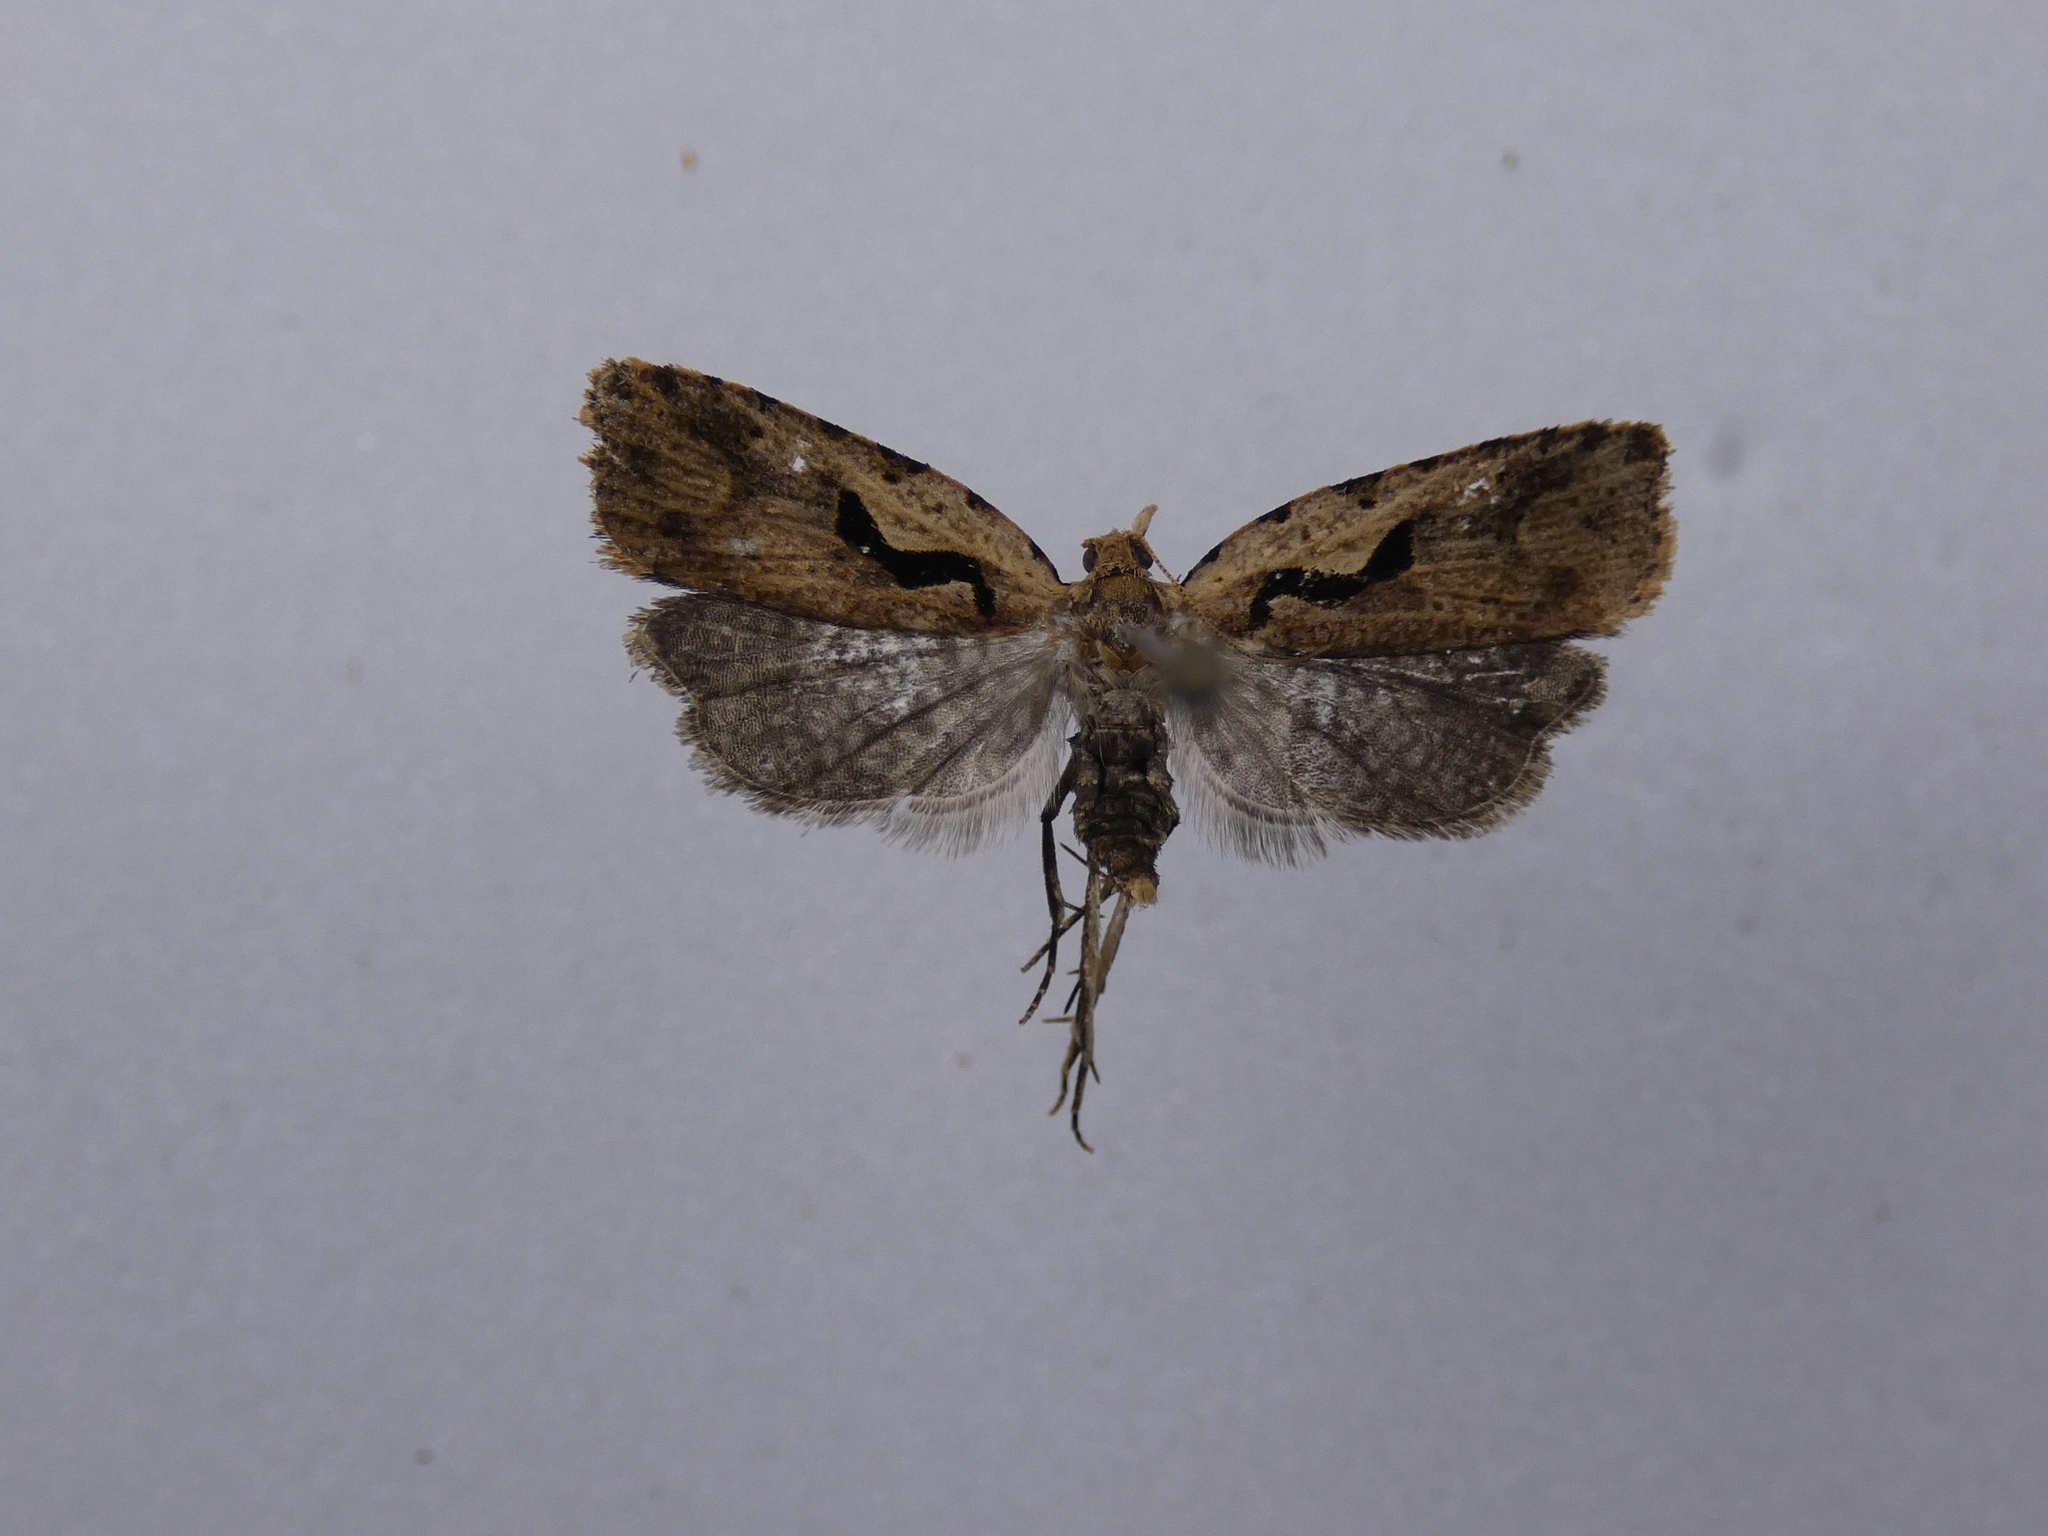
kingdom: Animalia
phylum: Arthropoda
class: Insecta
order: Lepidoptera
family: Tortricidae
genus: Cnephasia
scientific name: Cnephasia jactatana
